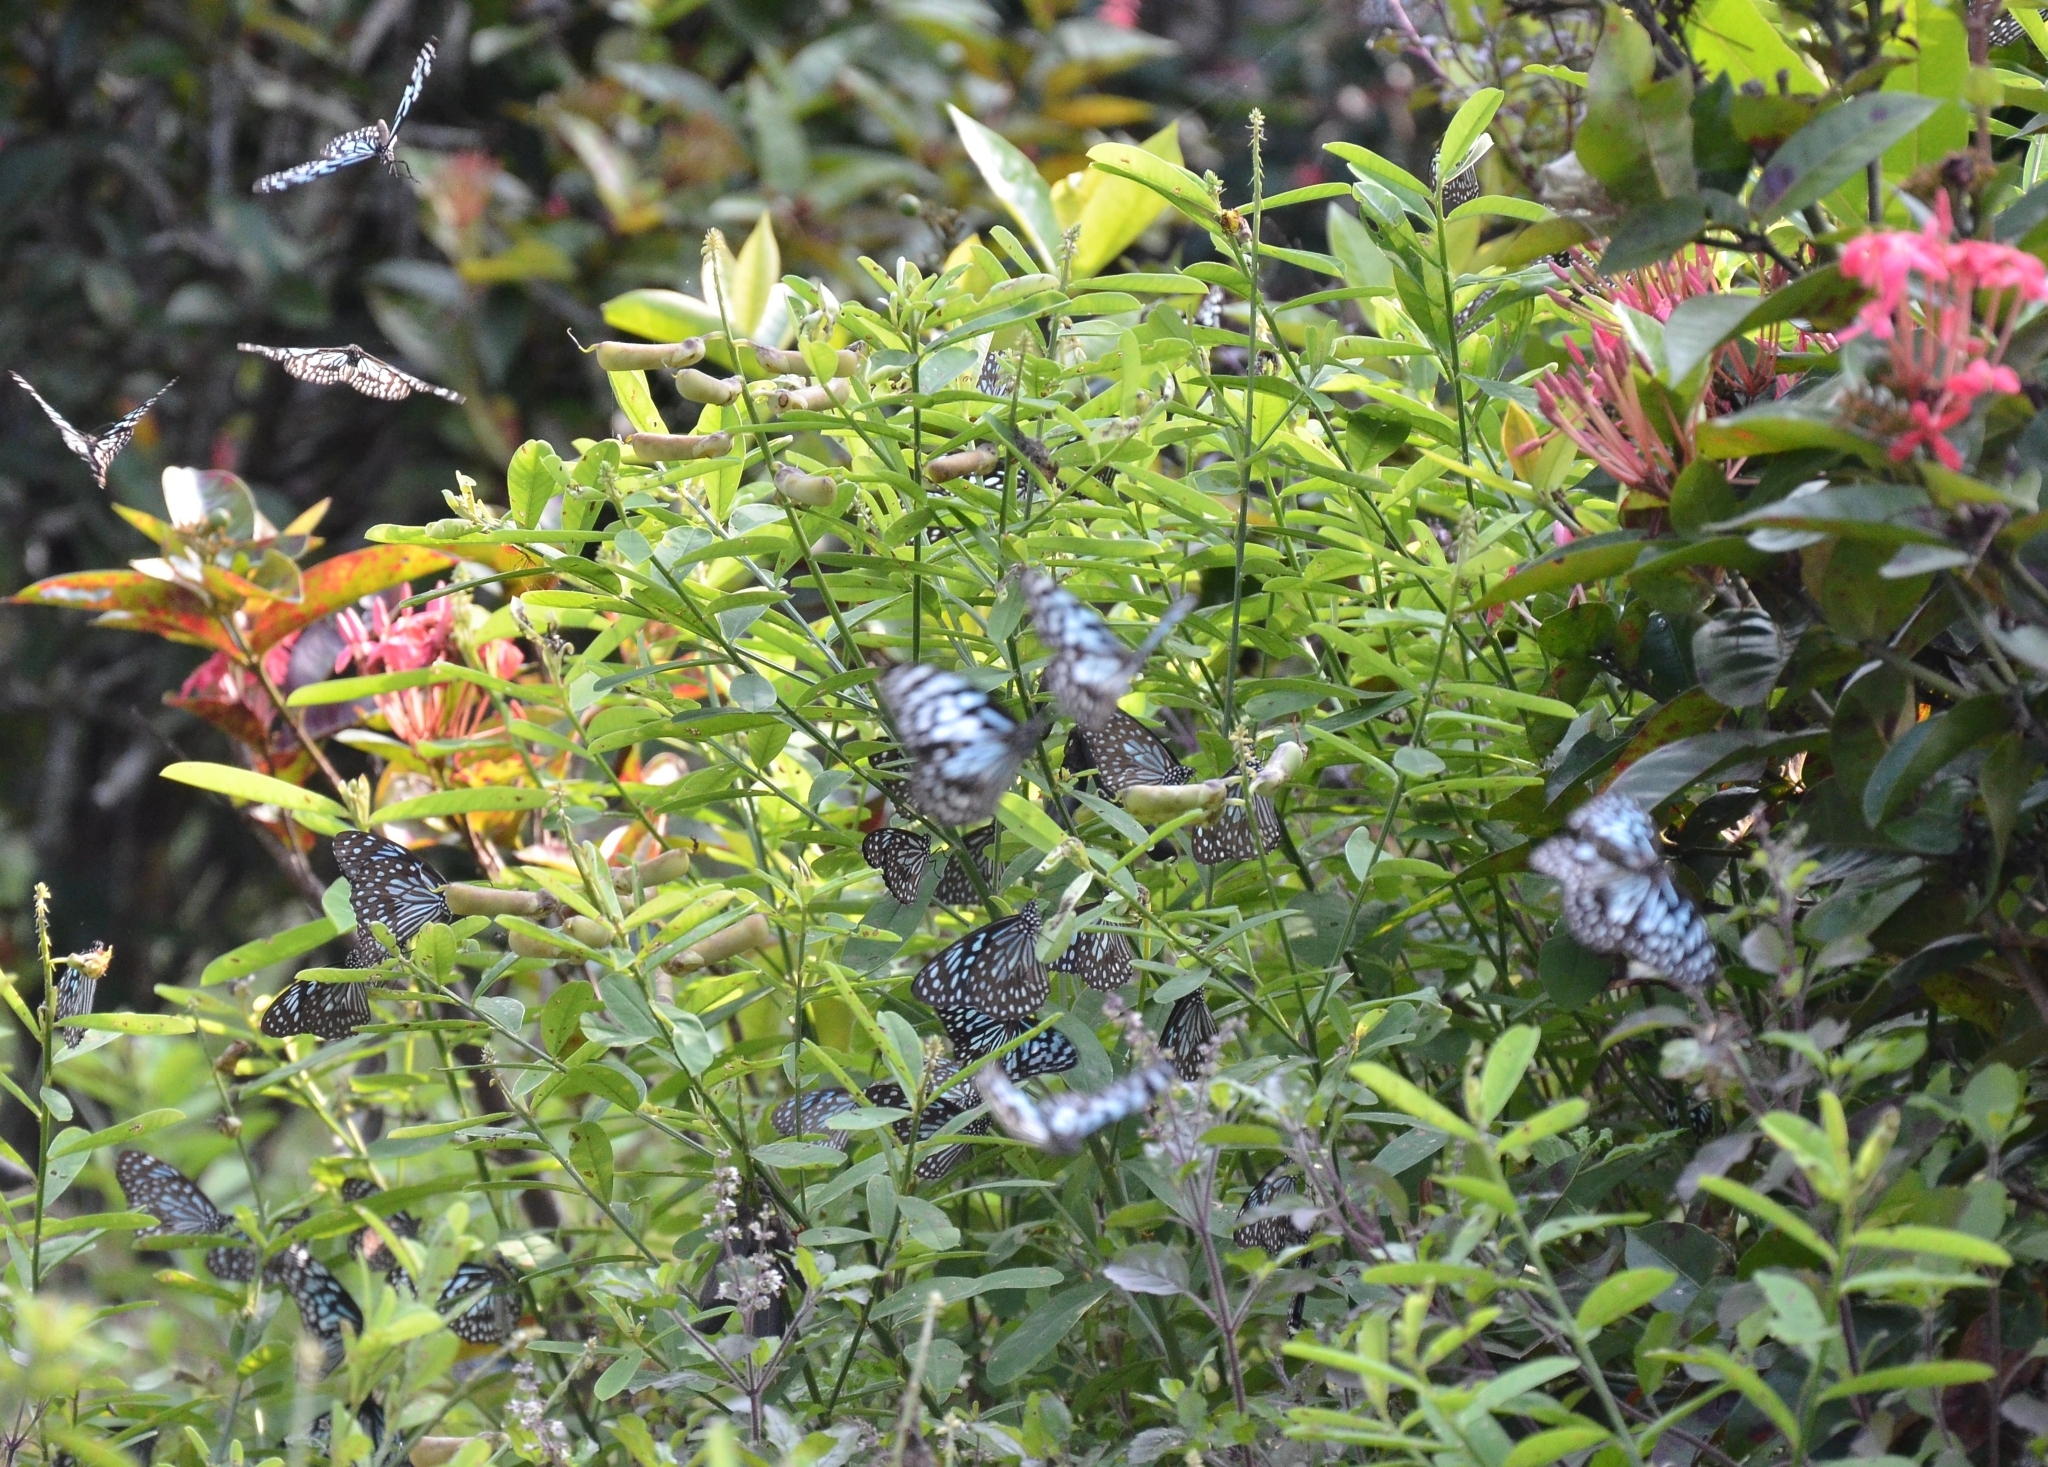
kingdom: Animalia
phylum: Arthropoda
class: Insecta
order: Lepidoptera
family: Nymphalidae
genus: Tirumala
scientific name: Tirumala septentrionis
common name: Dark blue tiger butterfly
